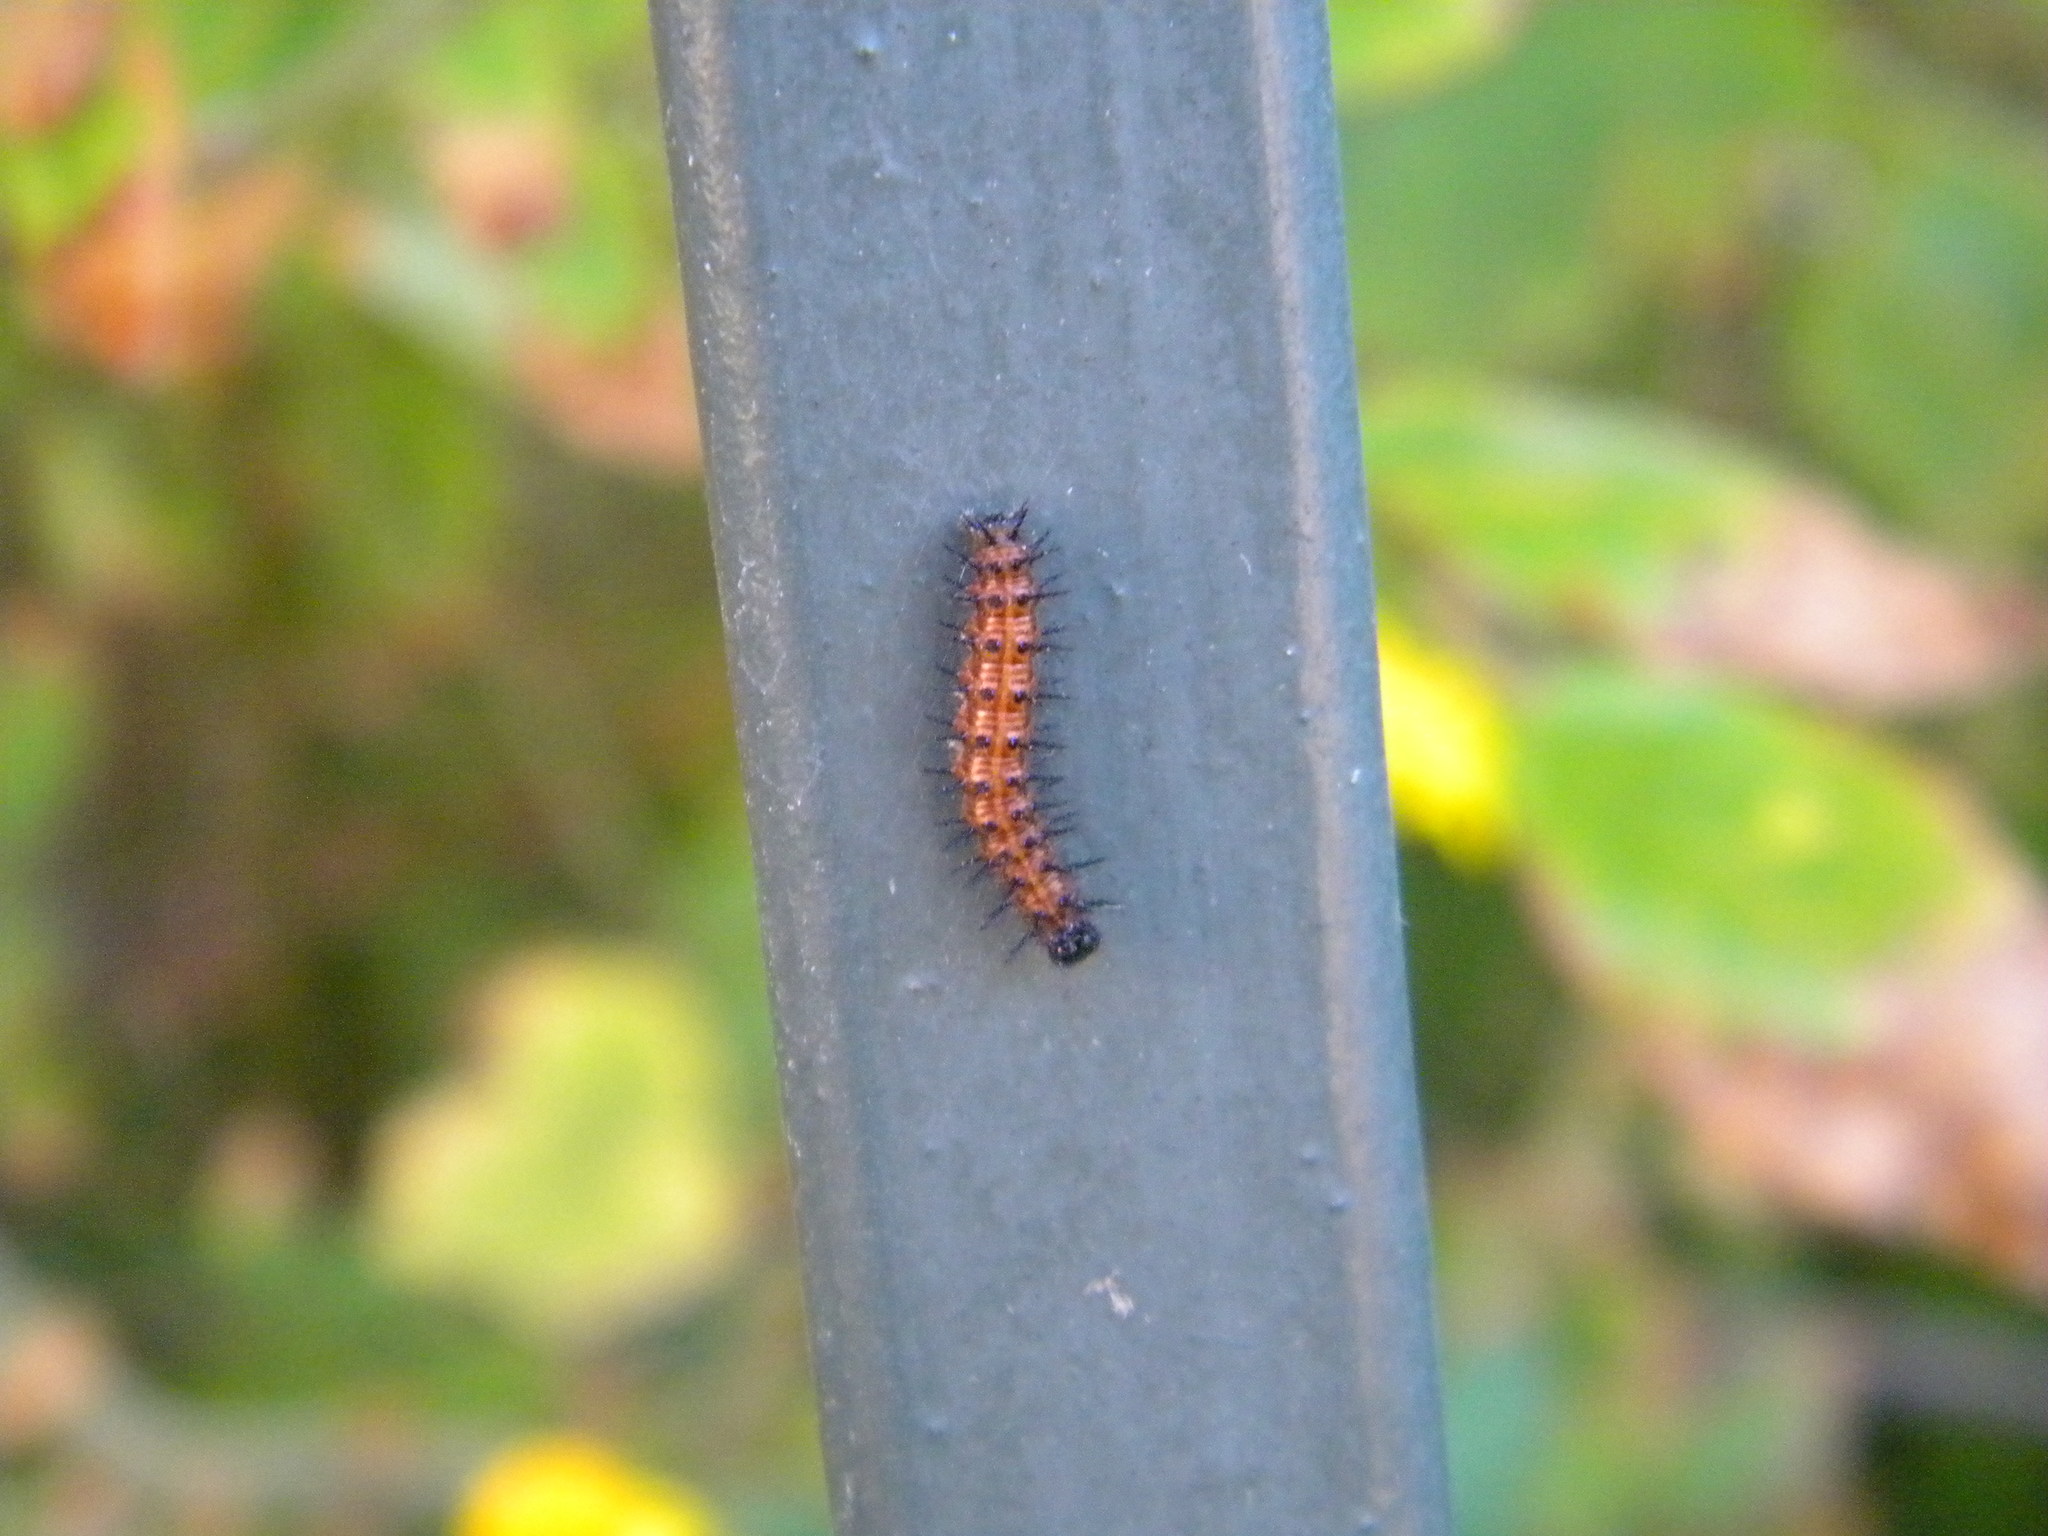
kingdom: Animalia
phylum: Arthropoda
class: Insecta
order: Lepidoptera
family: Nymphalidae
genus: Acraea
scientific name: Acraea horta
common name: Garden acraea
